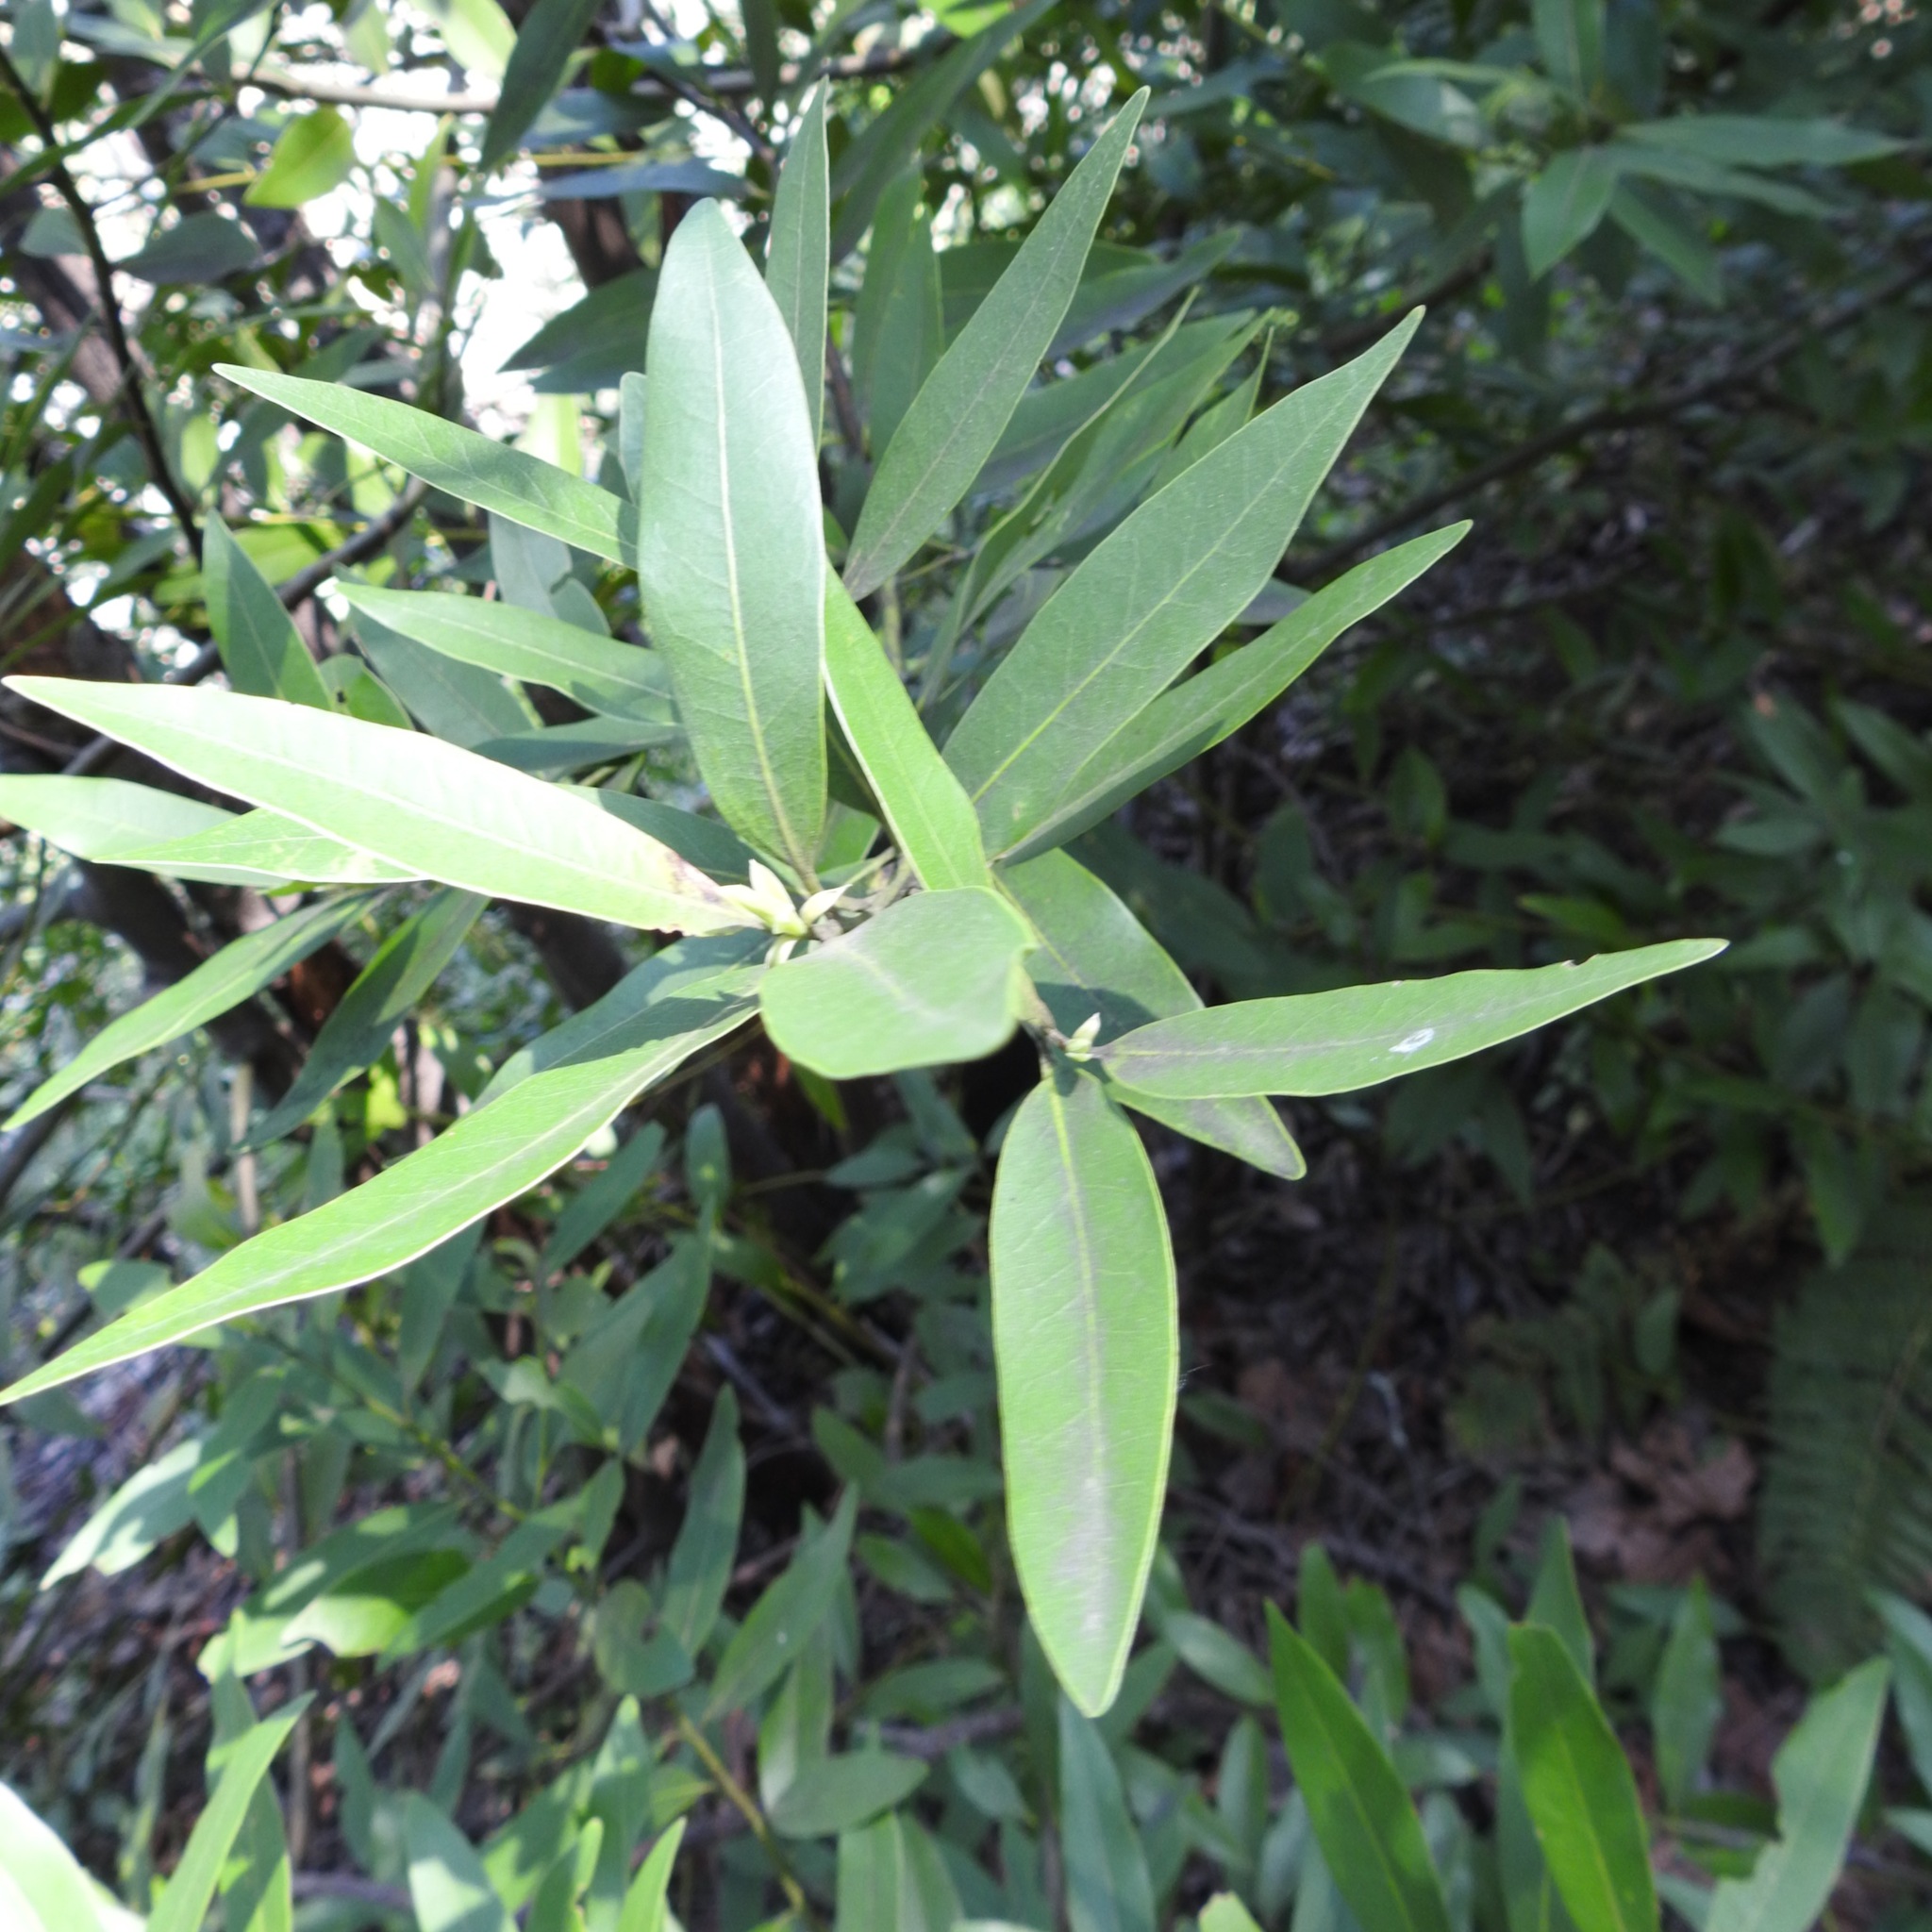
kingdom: Plantae
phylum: Tracheophyta
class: Magnoliopsida
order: Laurales
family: Lauraceae
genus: Umbellularia
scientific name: Umbellularia californica
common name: California bay
